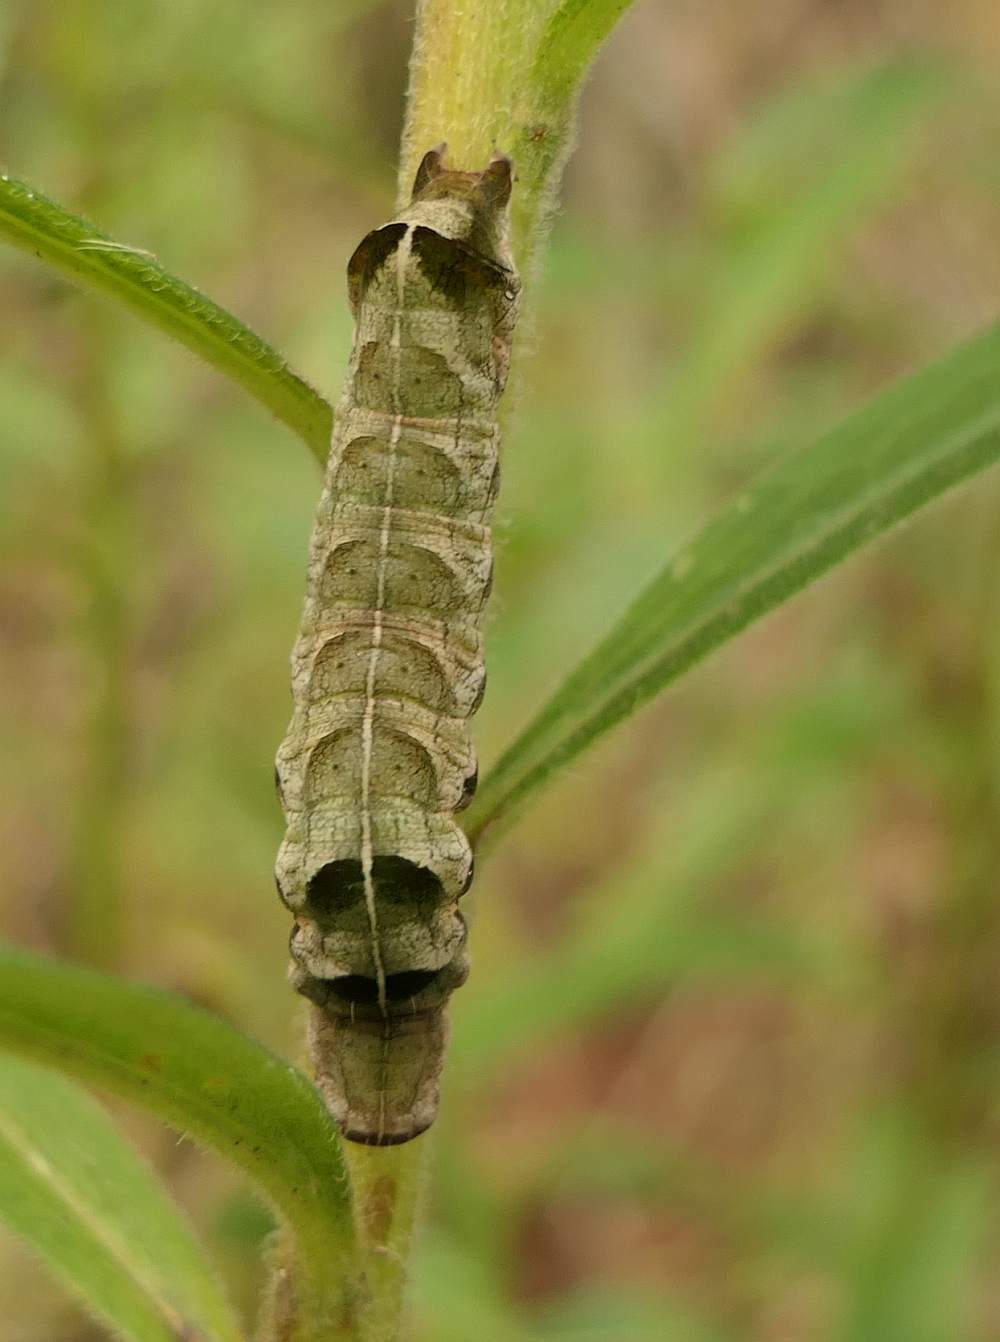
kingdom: Animalia
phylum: Arthropoda
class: Insecta
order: Lepidoptera
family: Noctuidae
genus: Melanchra
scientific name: Melanchra adjuncta
